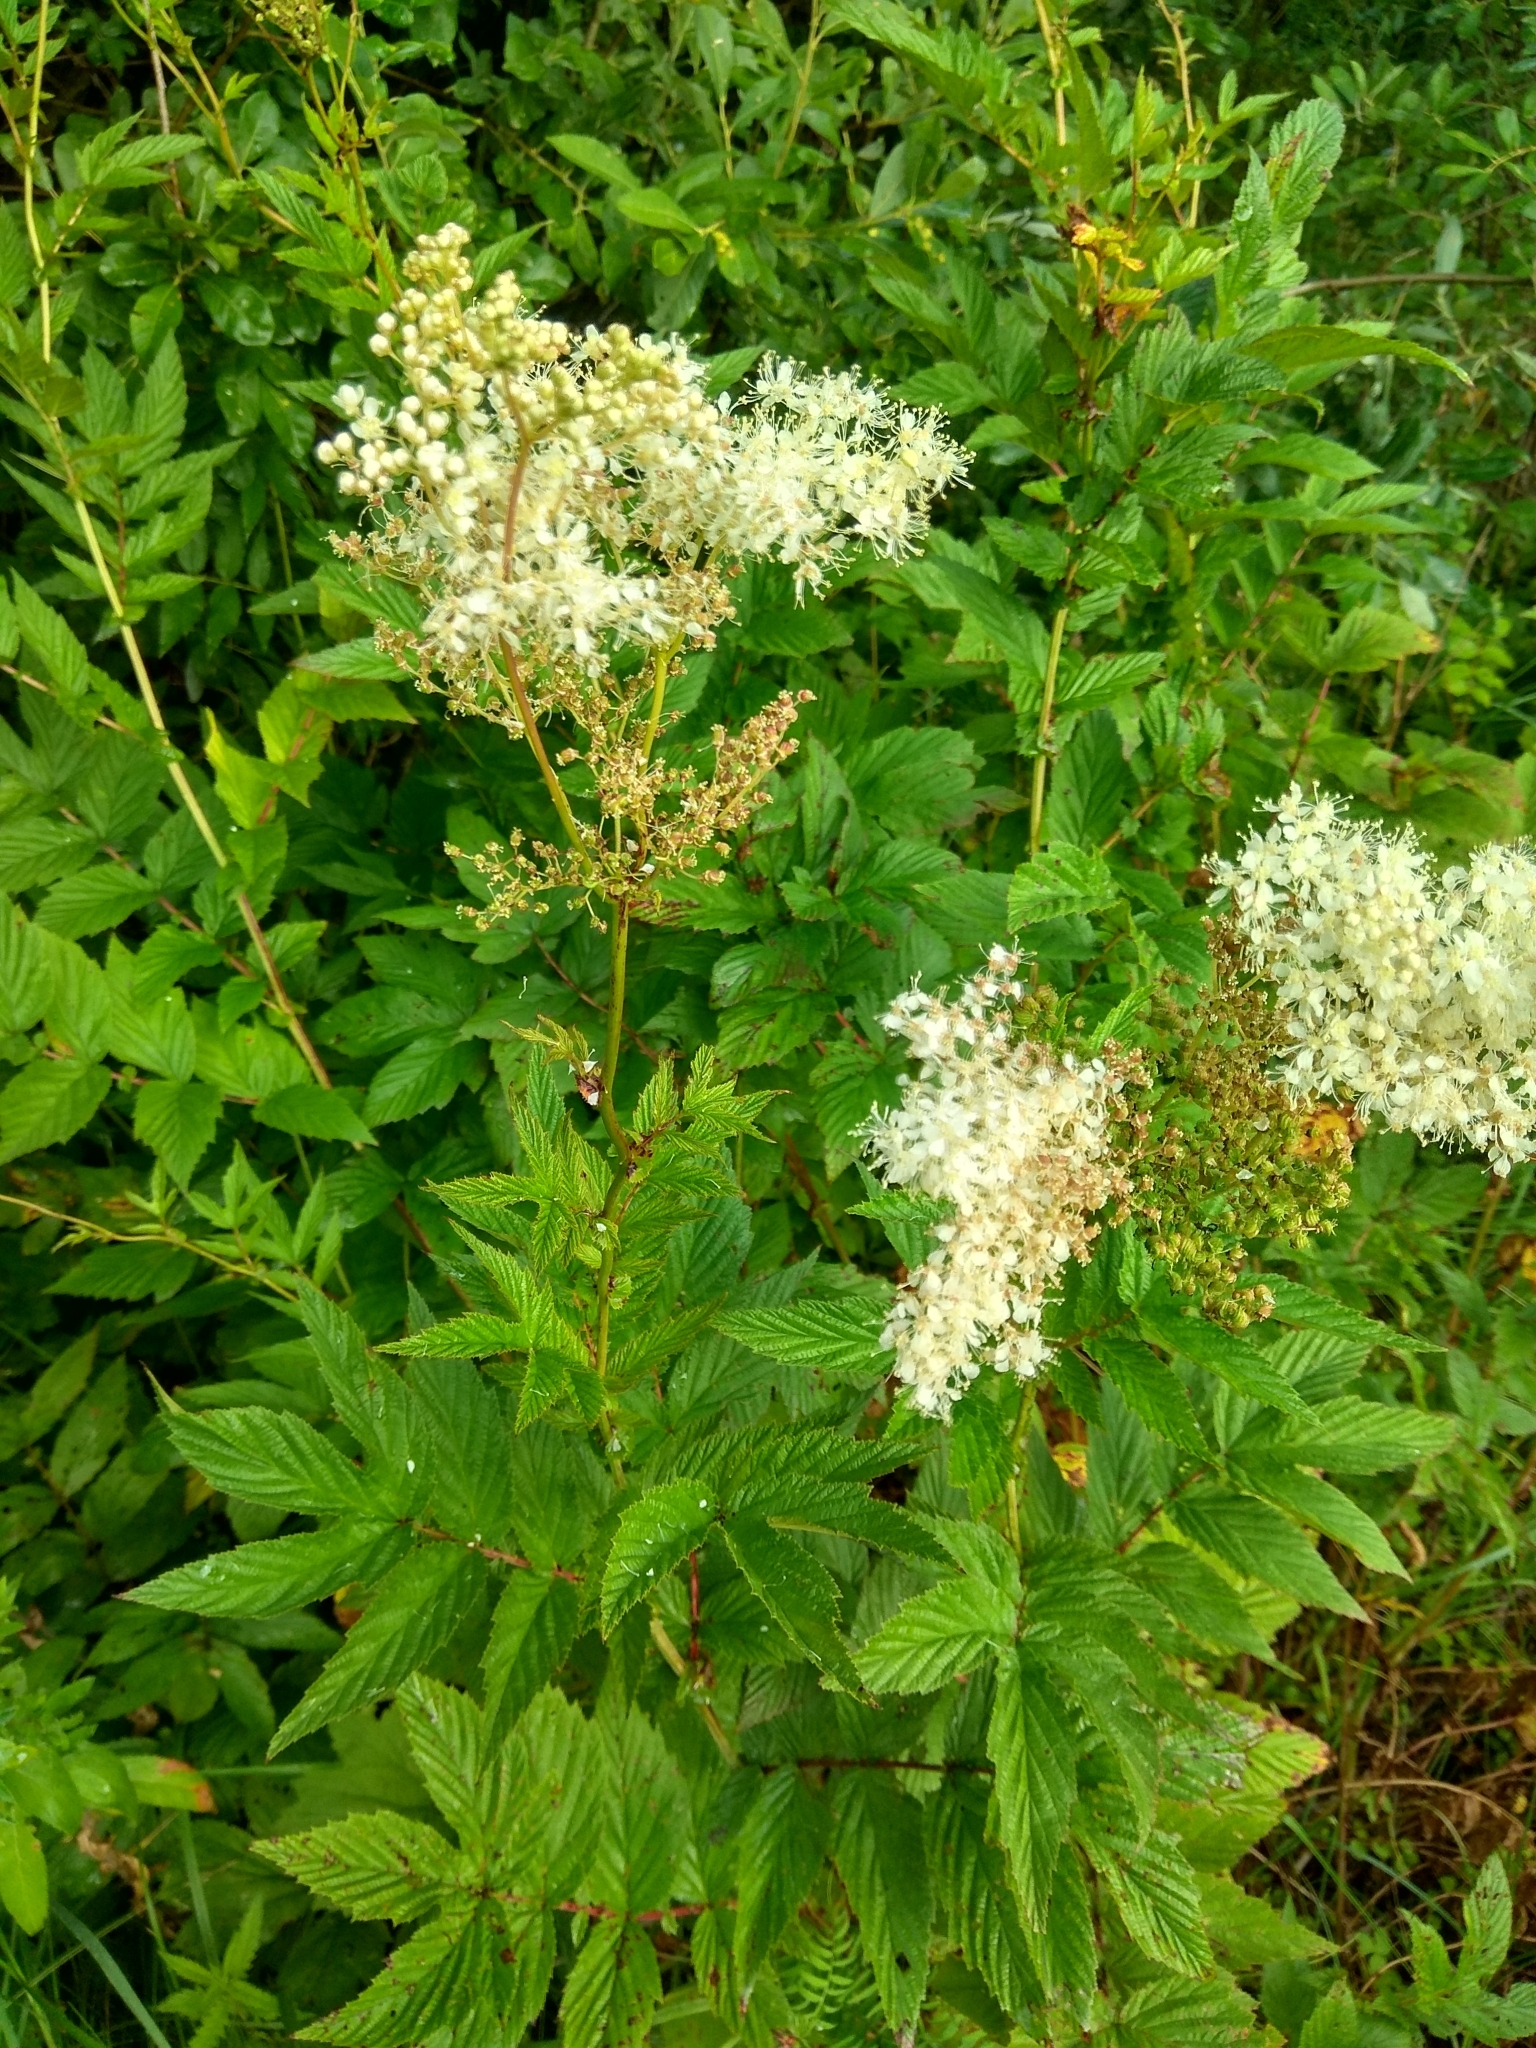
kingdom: Plantae
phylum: Tracheophyta
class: Magnoliopsida
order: Rosales
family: Rosaceae
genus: Filipendula
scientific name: Filipendula ulmaria
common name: Meadowsweet
